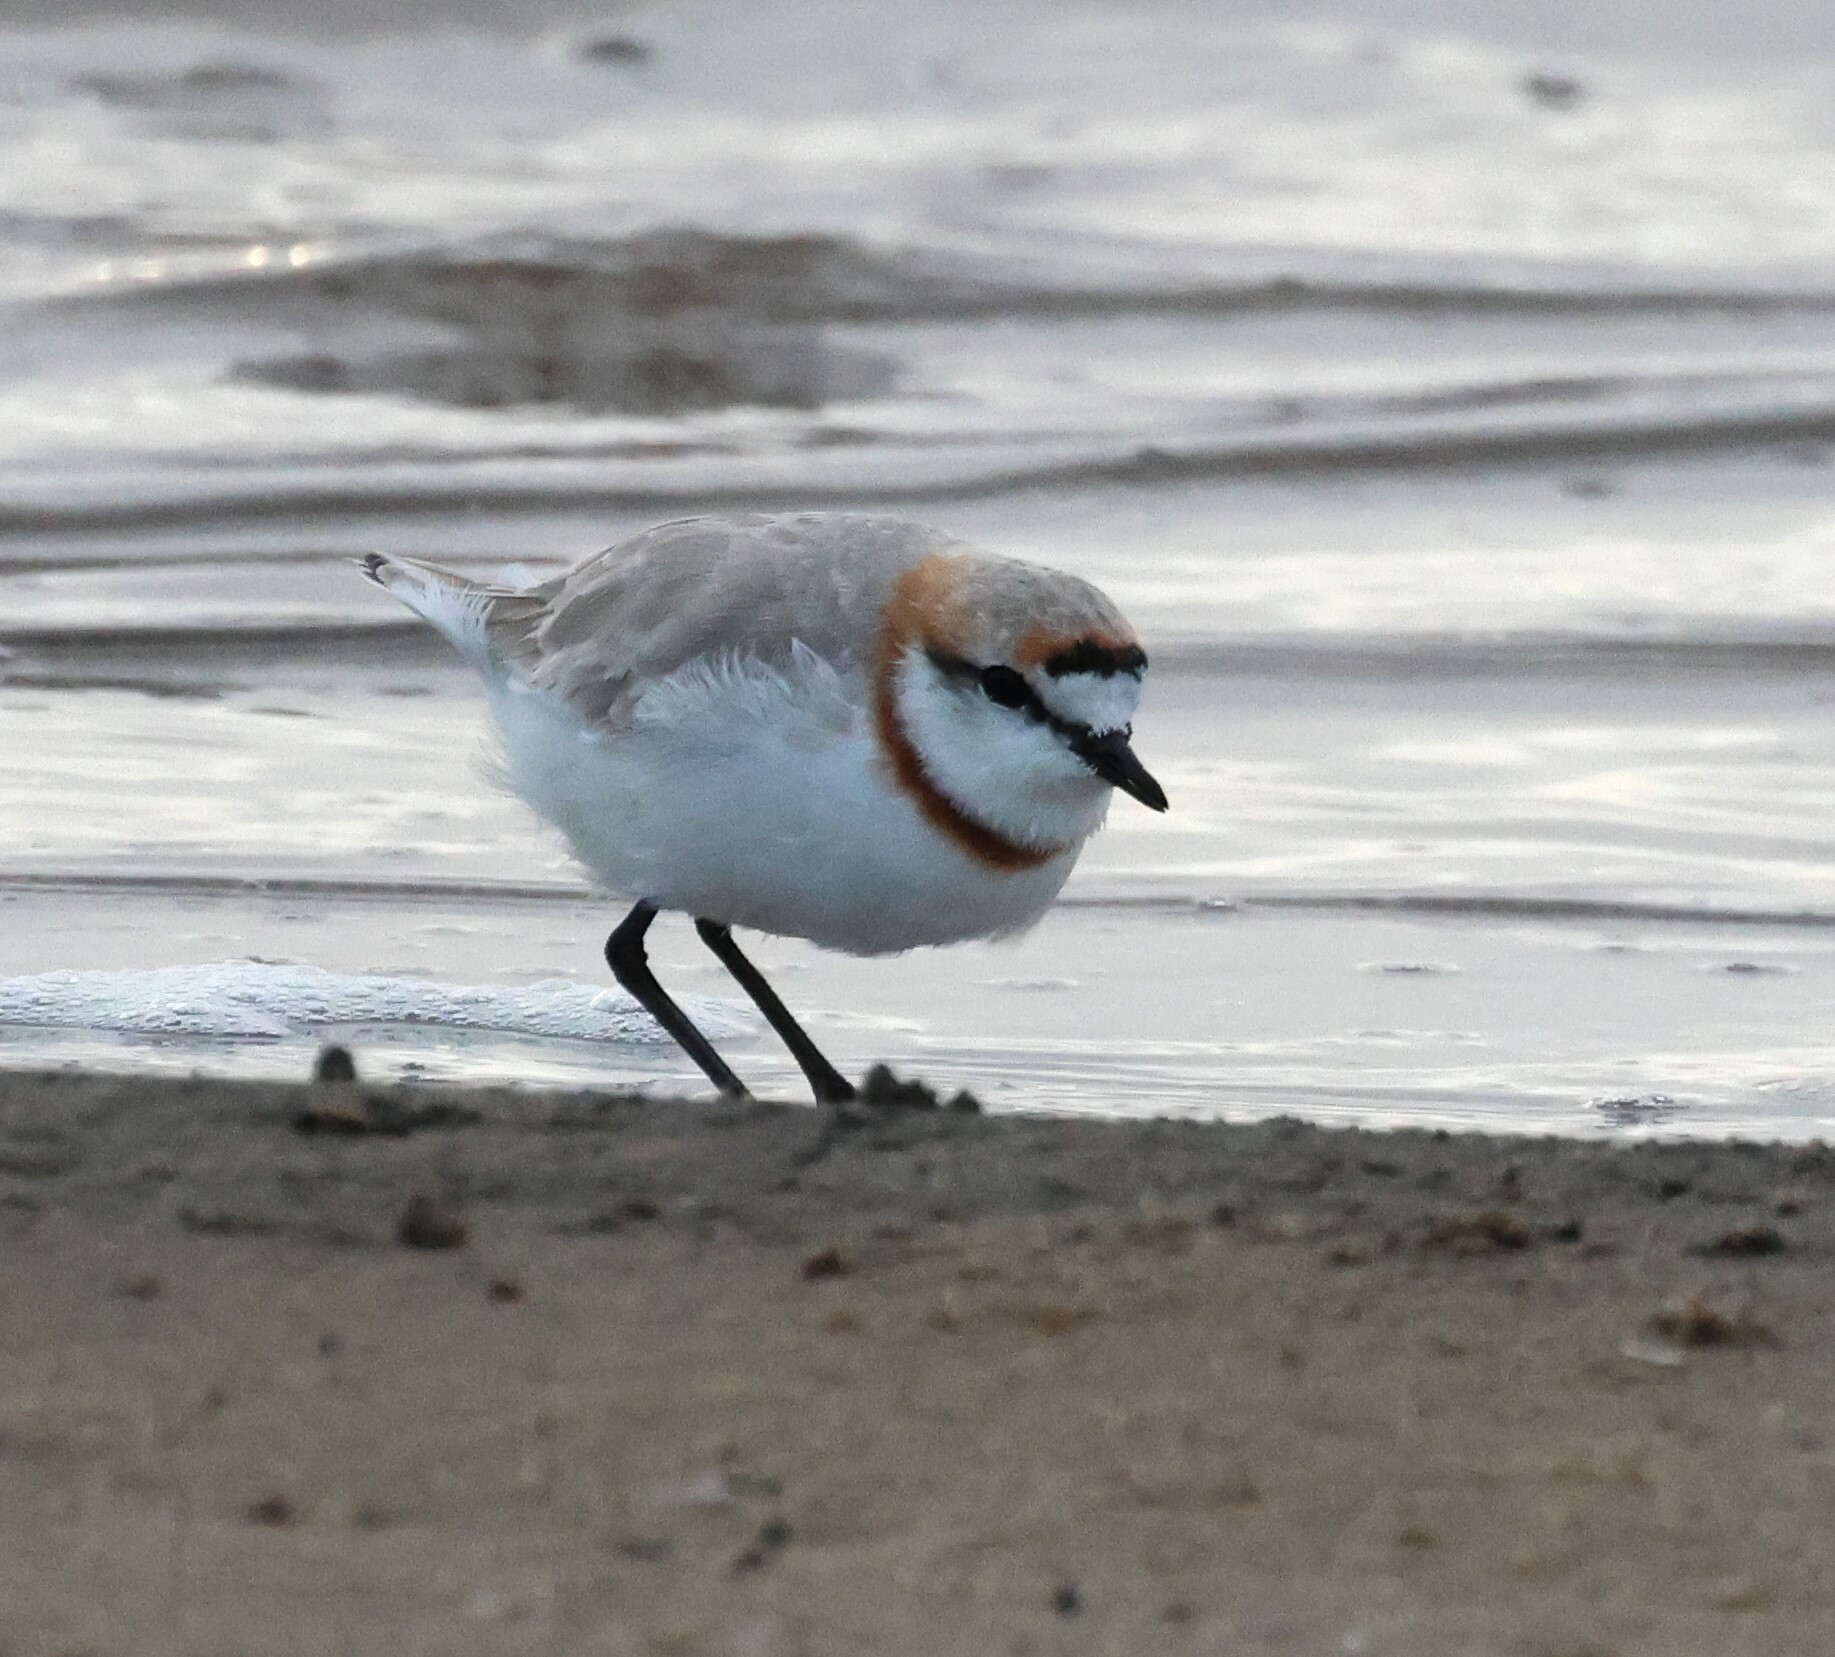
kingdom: Animalia
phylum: Chordata
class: Aves
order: Charadriiformes
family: Charadriidae
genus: Anarhynchus
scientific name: Anarhynchus
